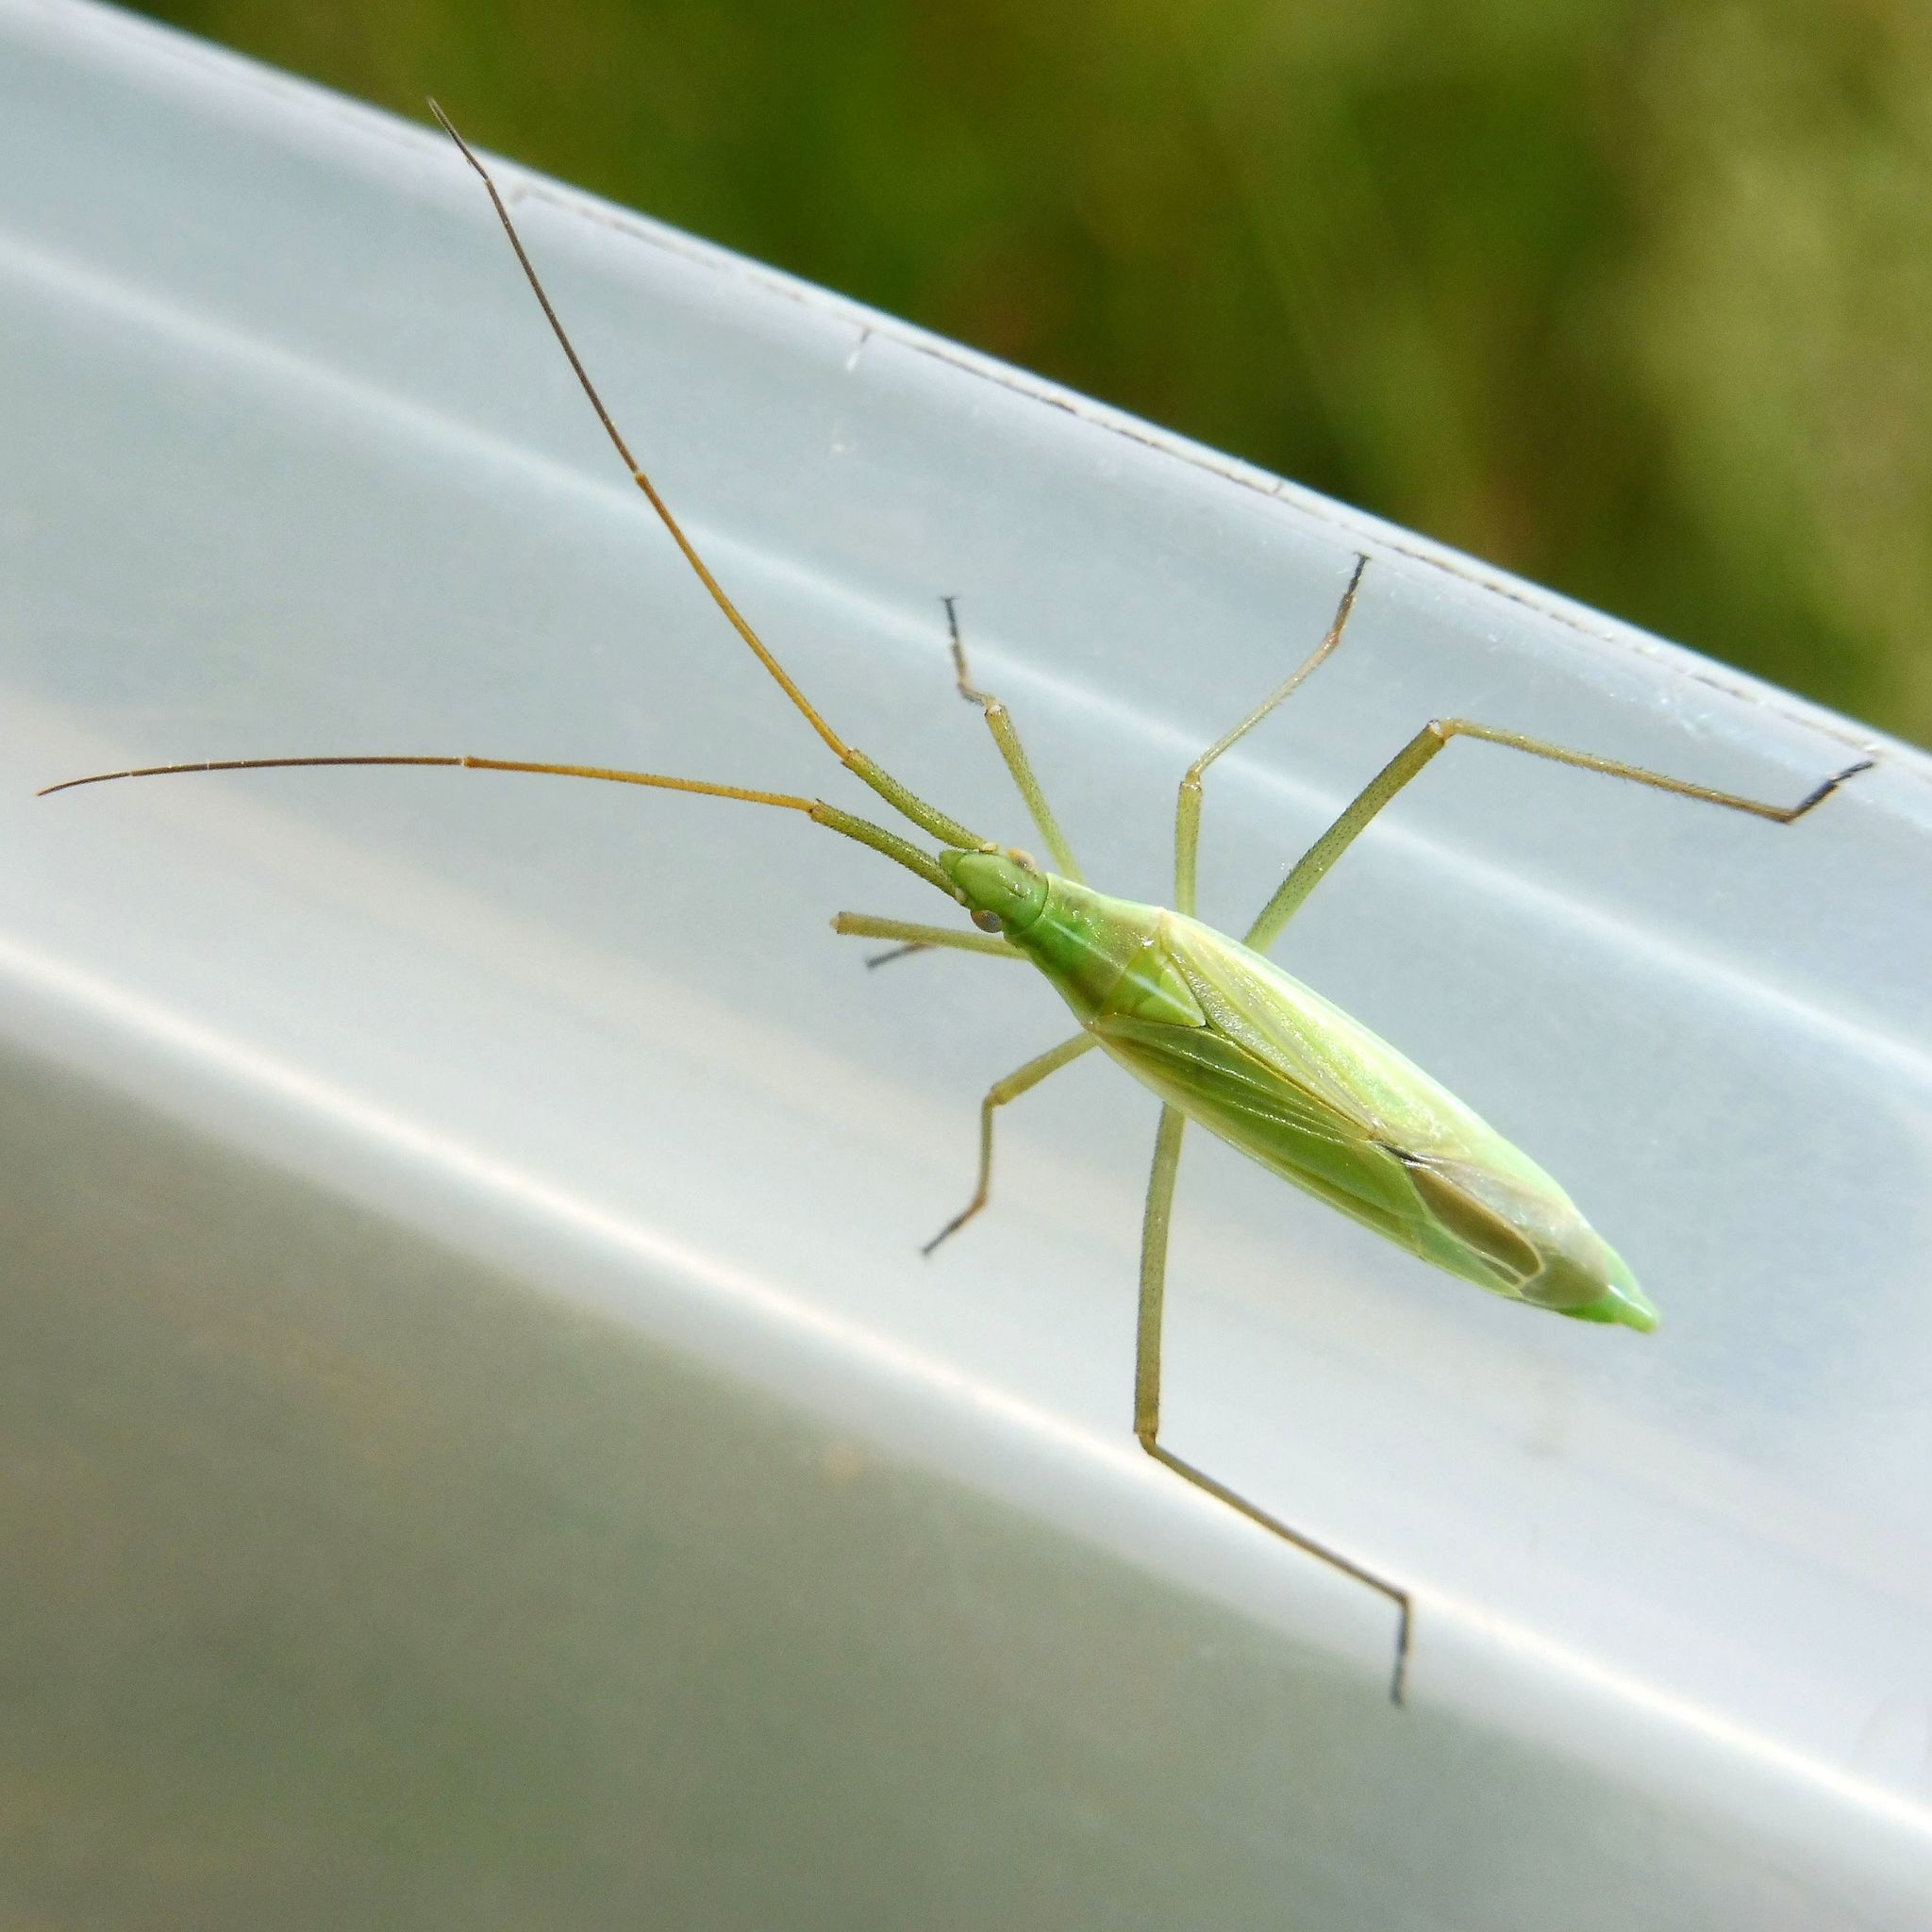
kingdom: Animalia
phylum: Arthropoda
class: Insecta
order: Hemiptera
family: Miridae
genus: Megaloceroea
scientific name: Megaloceroea recticornis
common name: Plant bug
